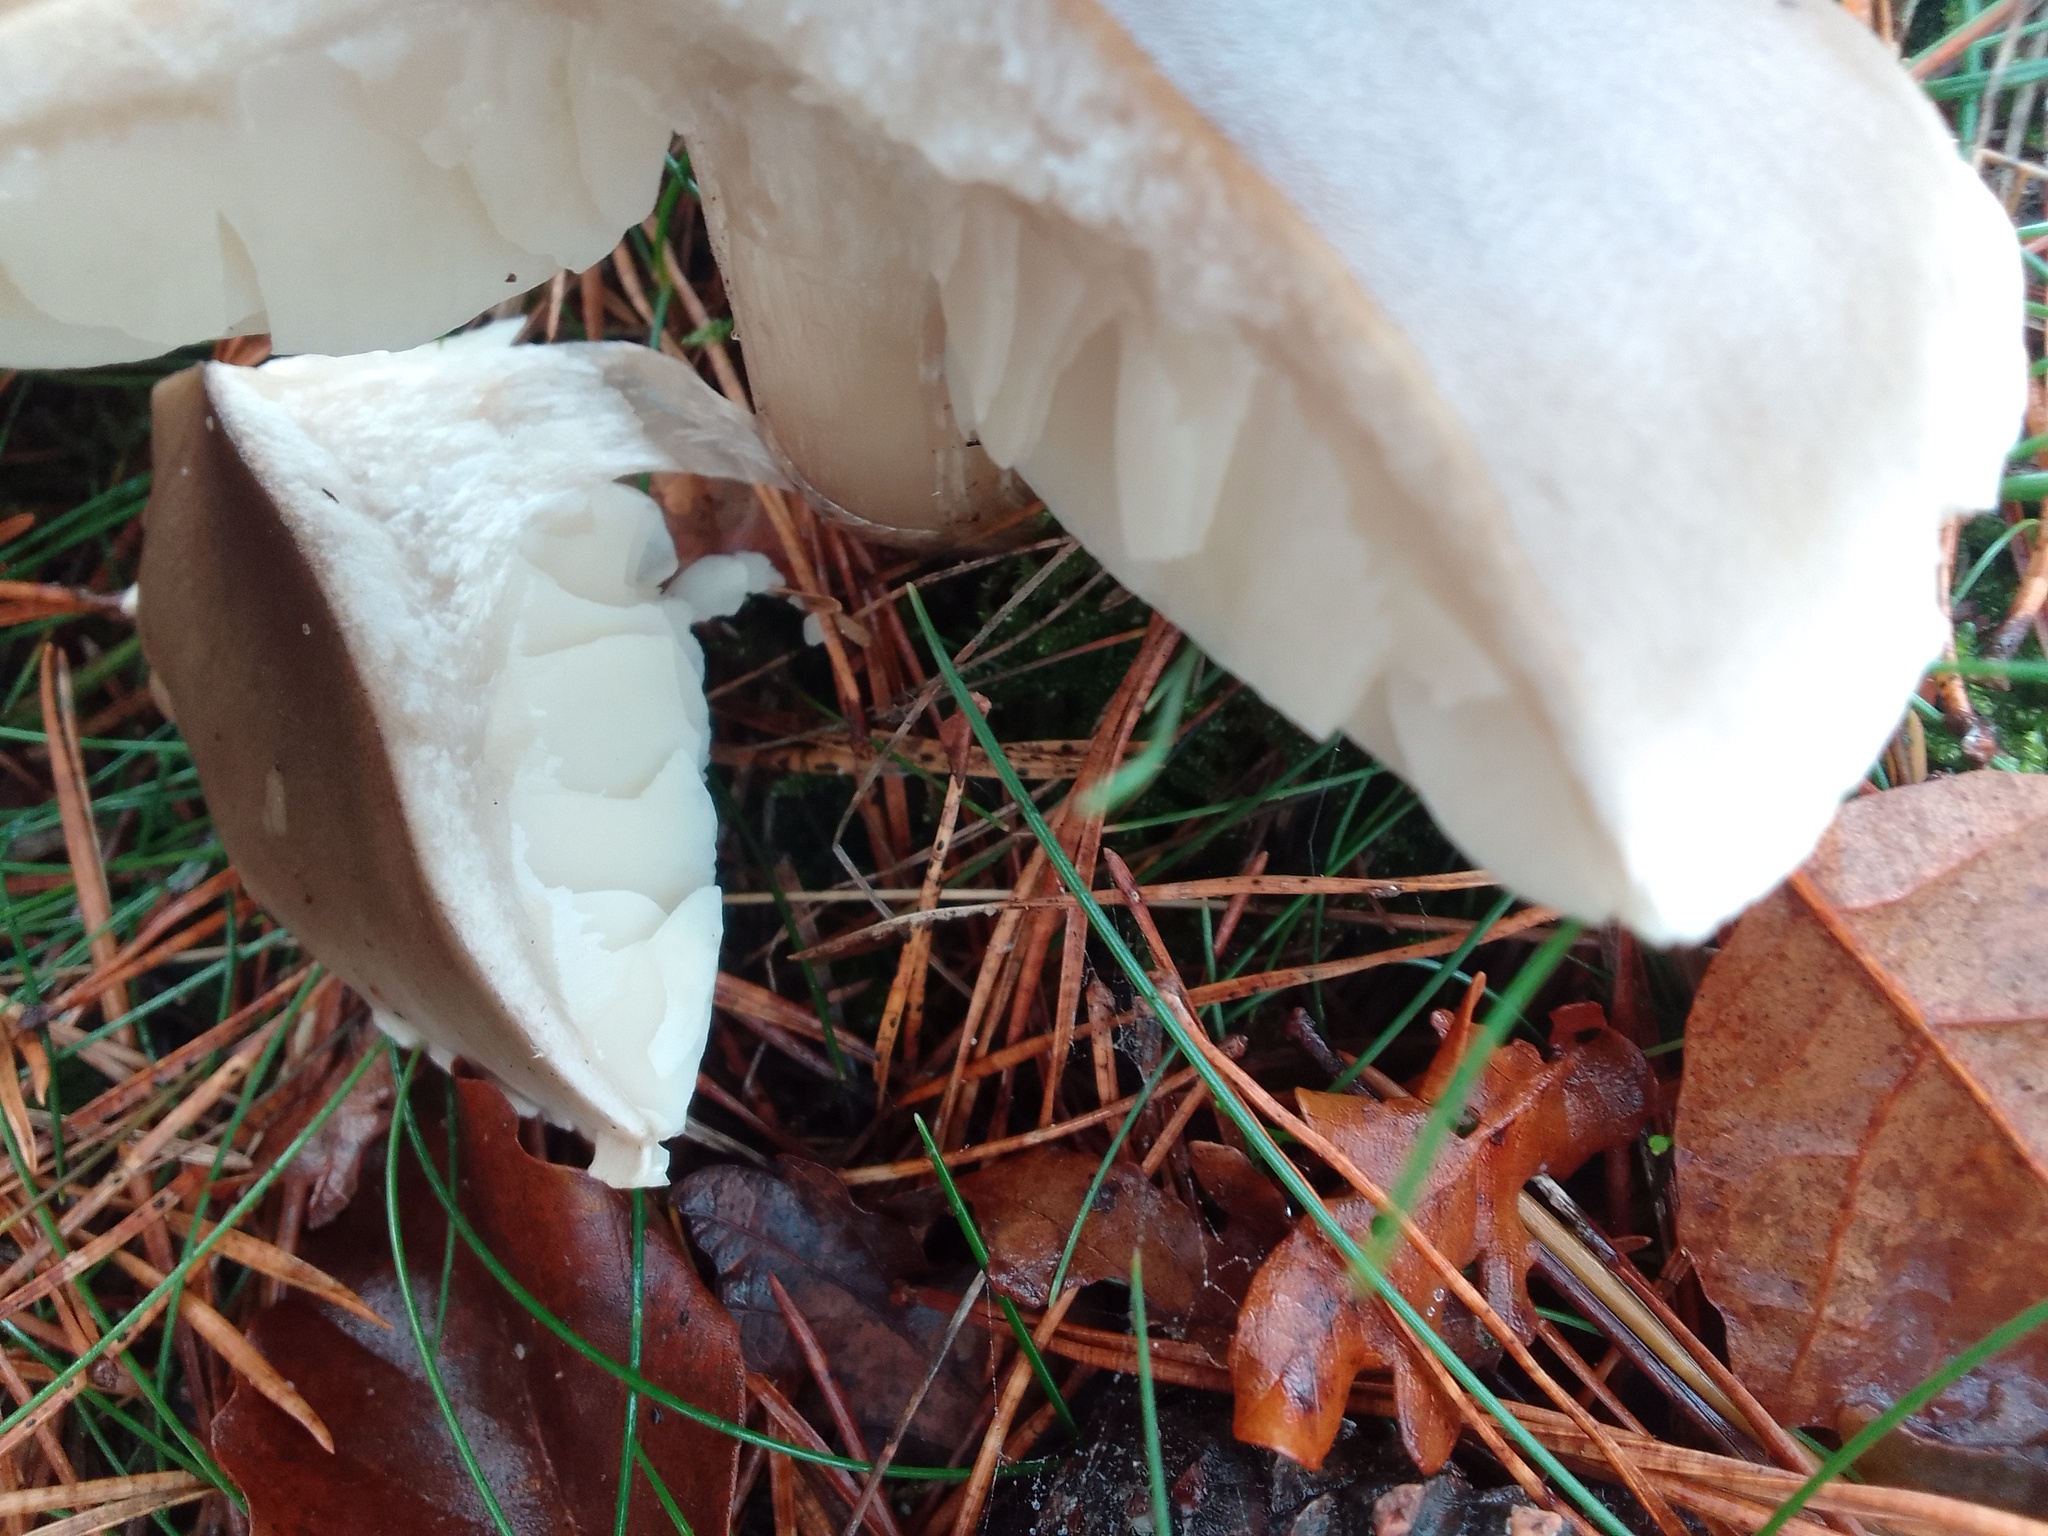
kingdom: Fungi
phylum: Basidiomycota
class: Agaricomycetes
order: Agaricales
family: Tricholomataceae
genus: Tricholoma
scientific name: Tricholoma saponaceum
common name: Soapy trich
